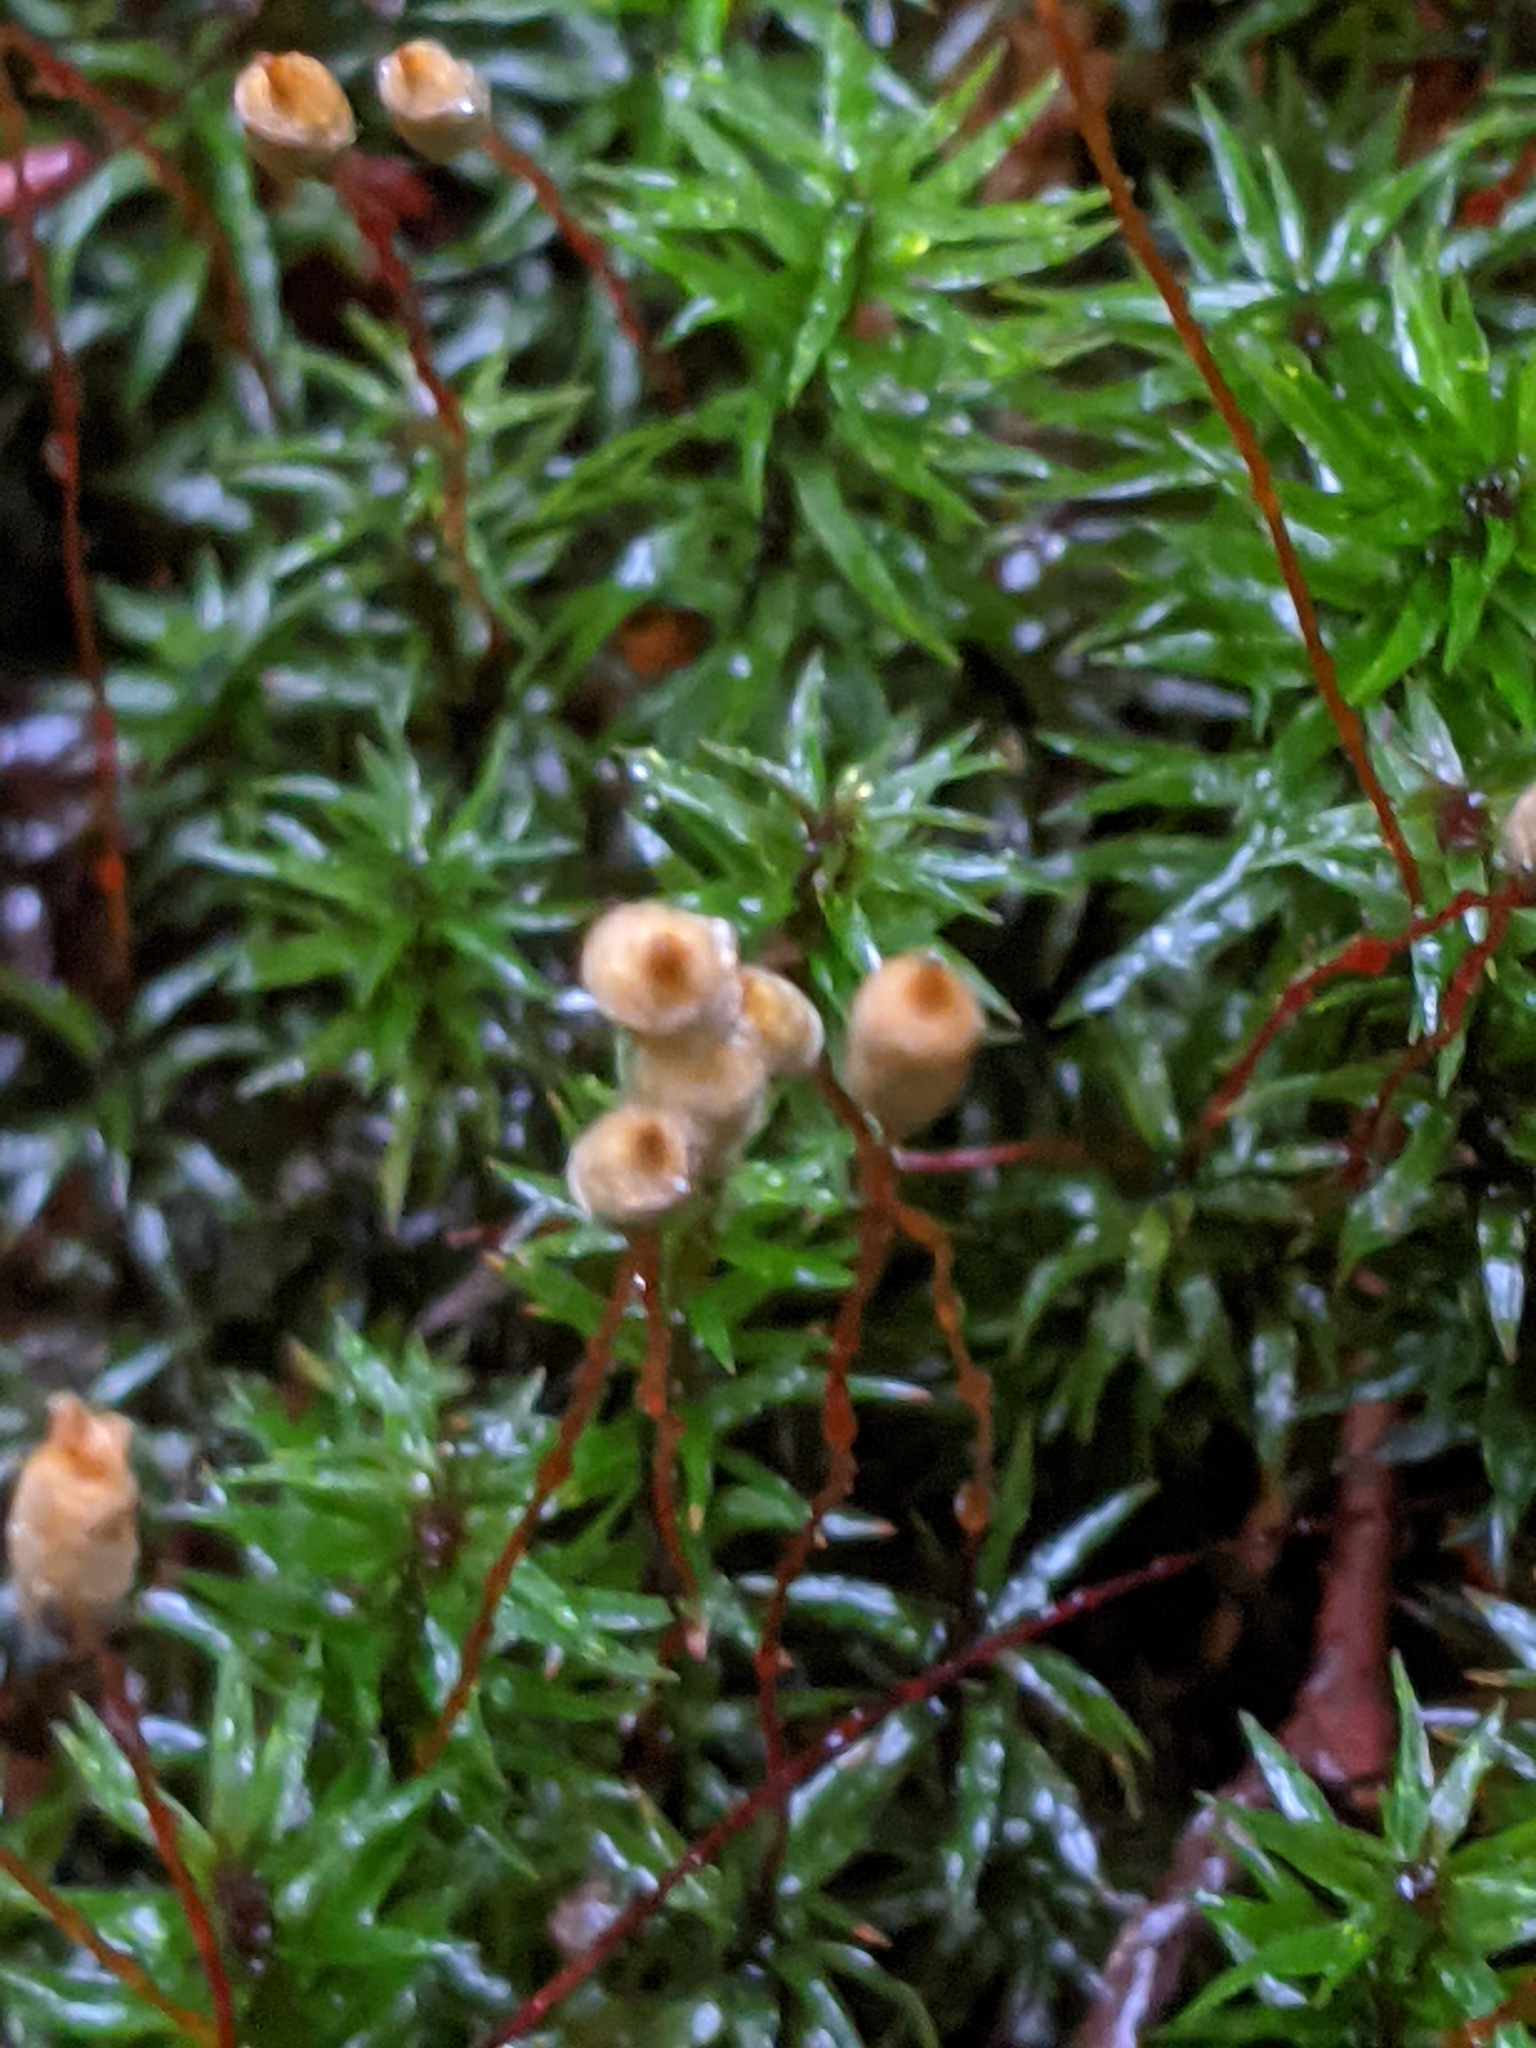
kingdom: Plantae
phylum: Bryophyta
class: Polytrichopsida
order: Polytrichales
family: Polytrichaceae
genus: Pogonatum
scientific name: Pogonatum contortum
